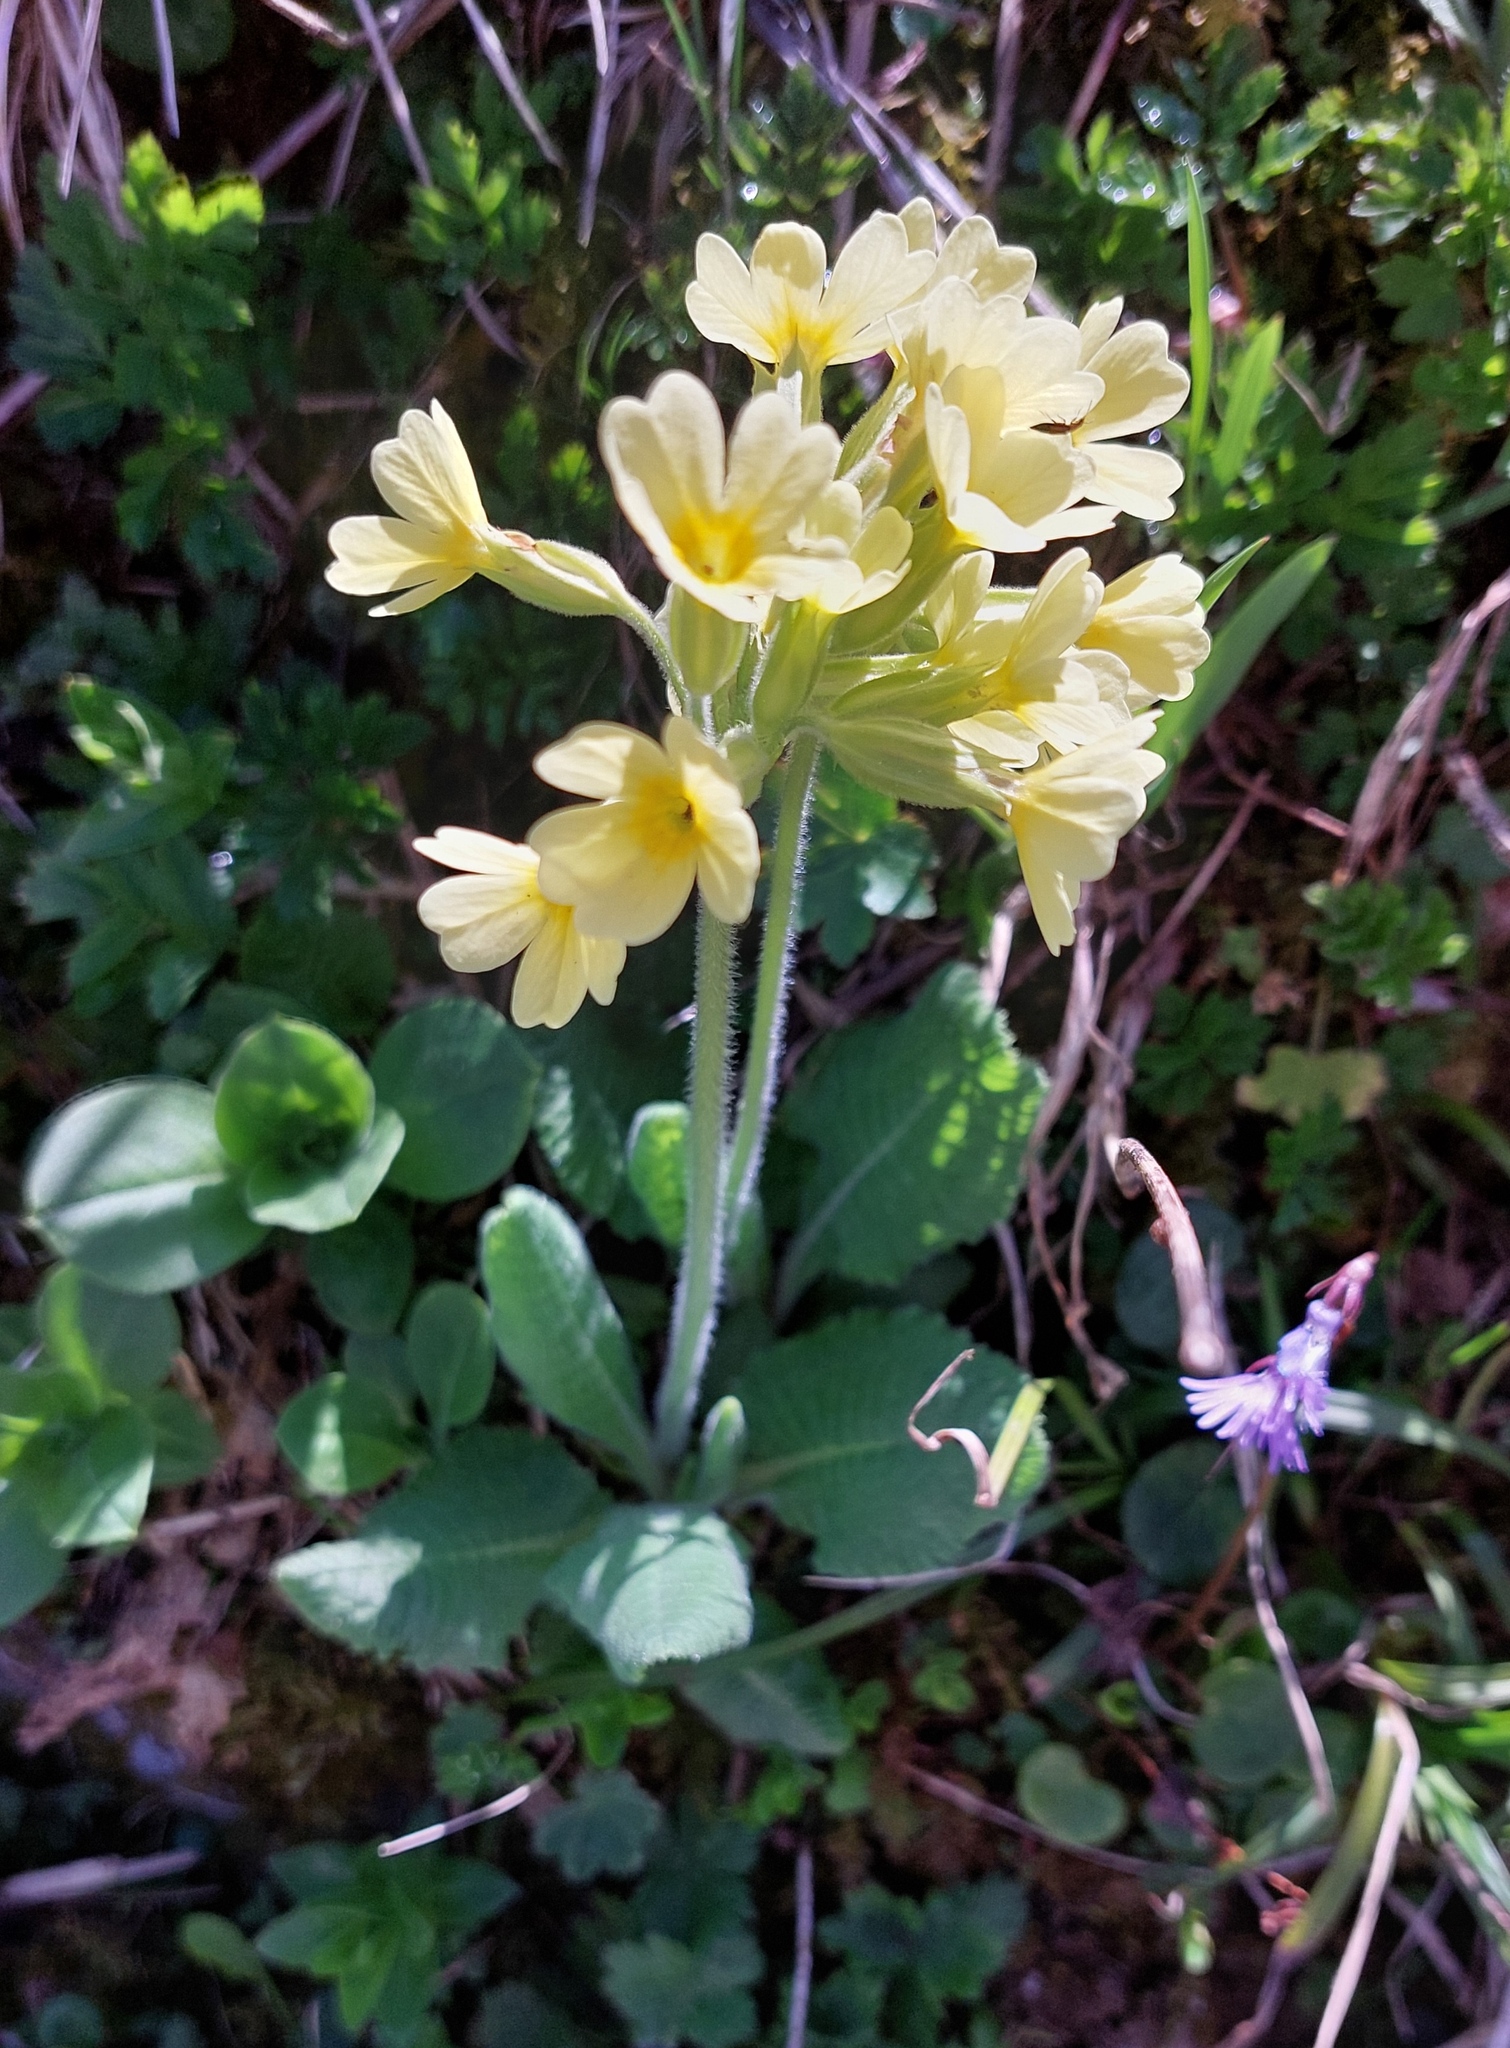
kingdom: Plantae
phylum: Tracheophyta
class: Magnoliopsida
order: Ericales
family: Primulaceae
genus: Primula
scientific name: Primula elatior
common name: Oxlip
